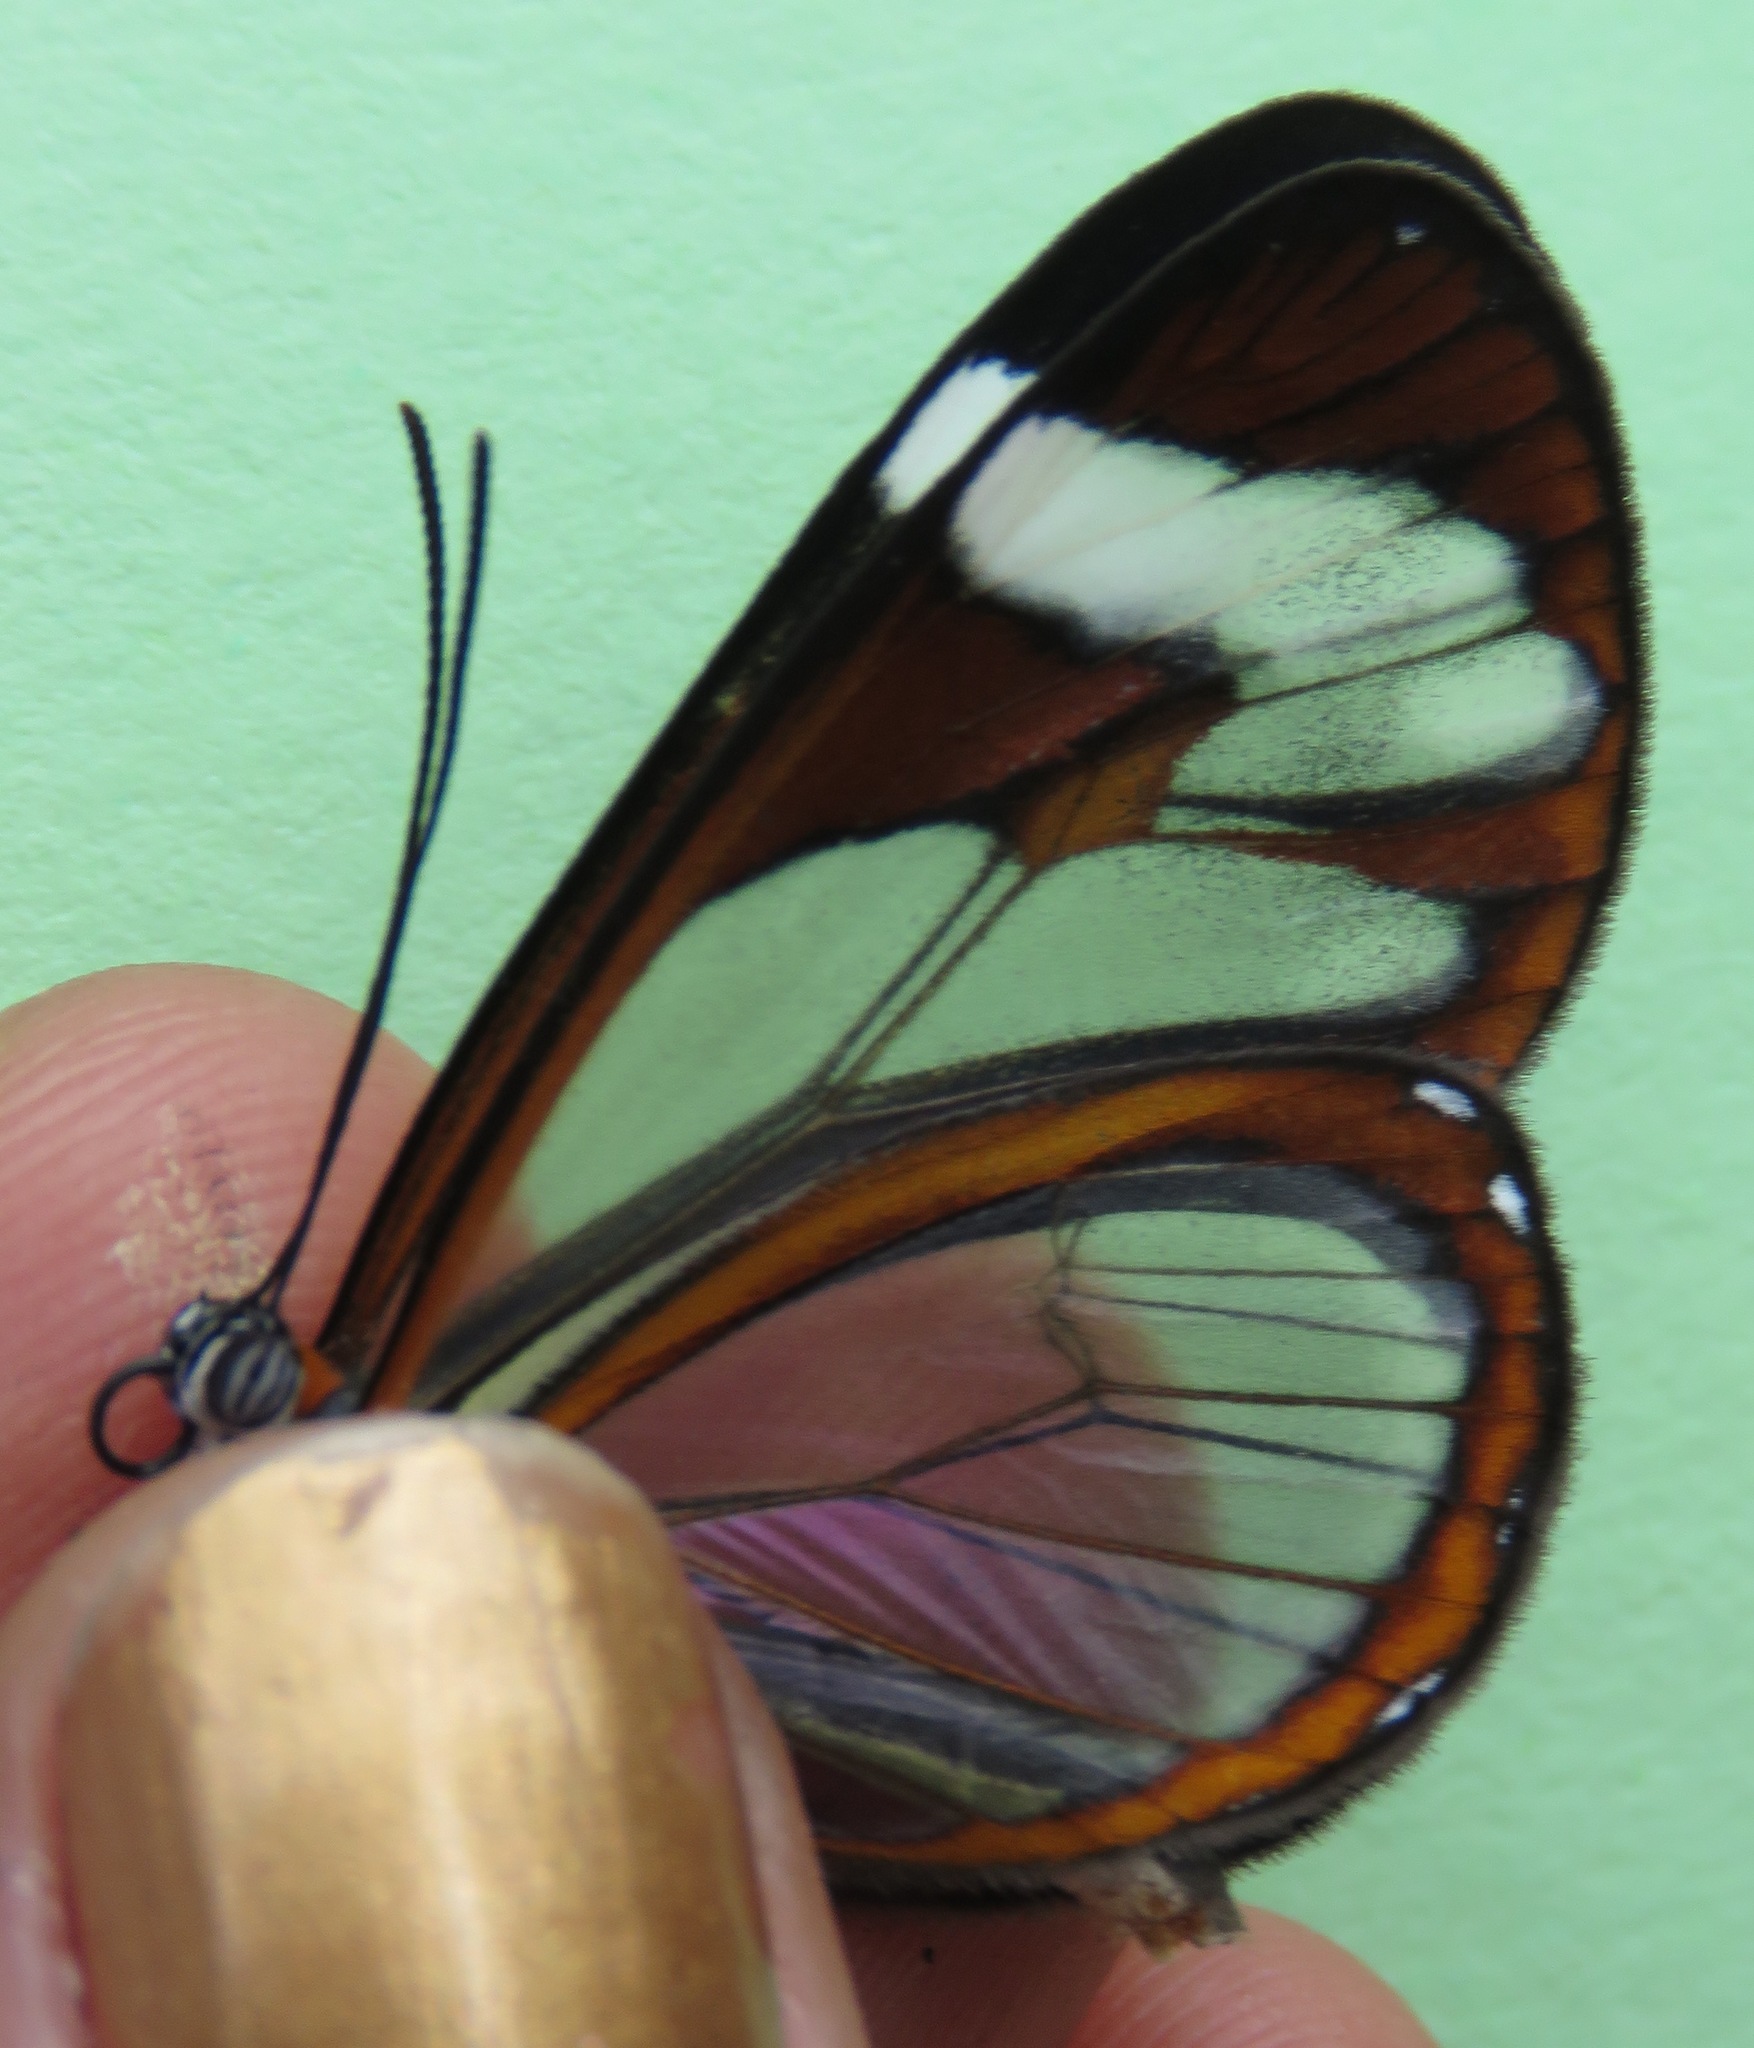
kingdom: Animalia
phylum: Arthropoda
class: Insecta
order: Lepidoptera
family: Nymphalidae
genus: Ithomia
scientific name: Ithomia patilla
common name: Patilla clearwing
